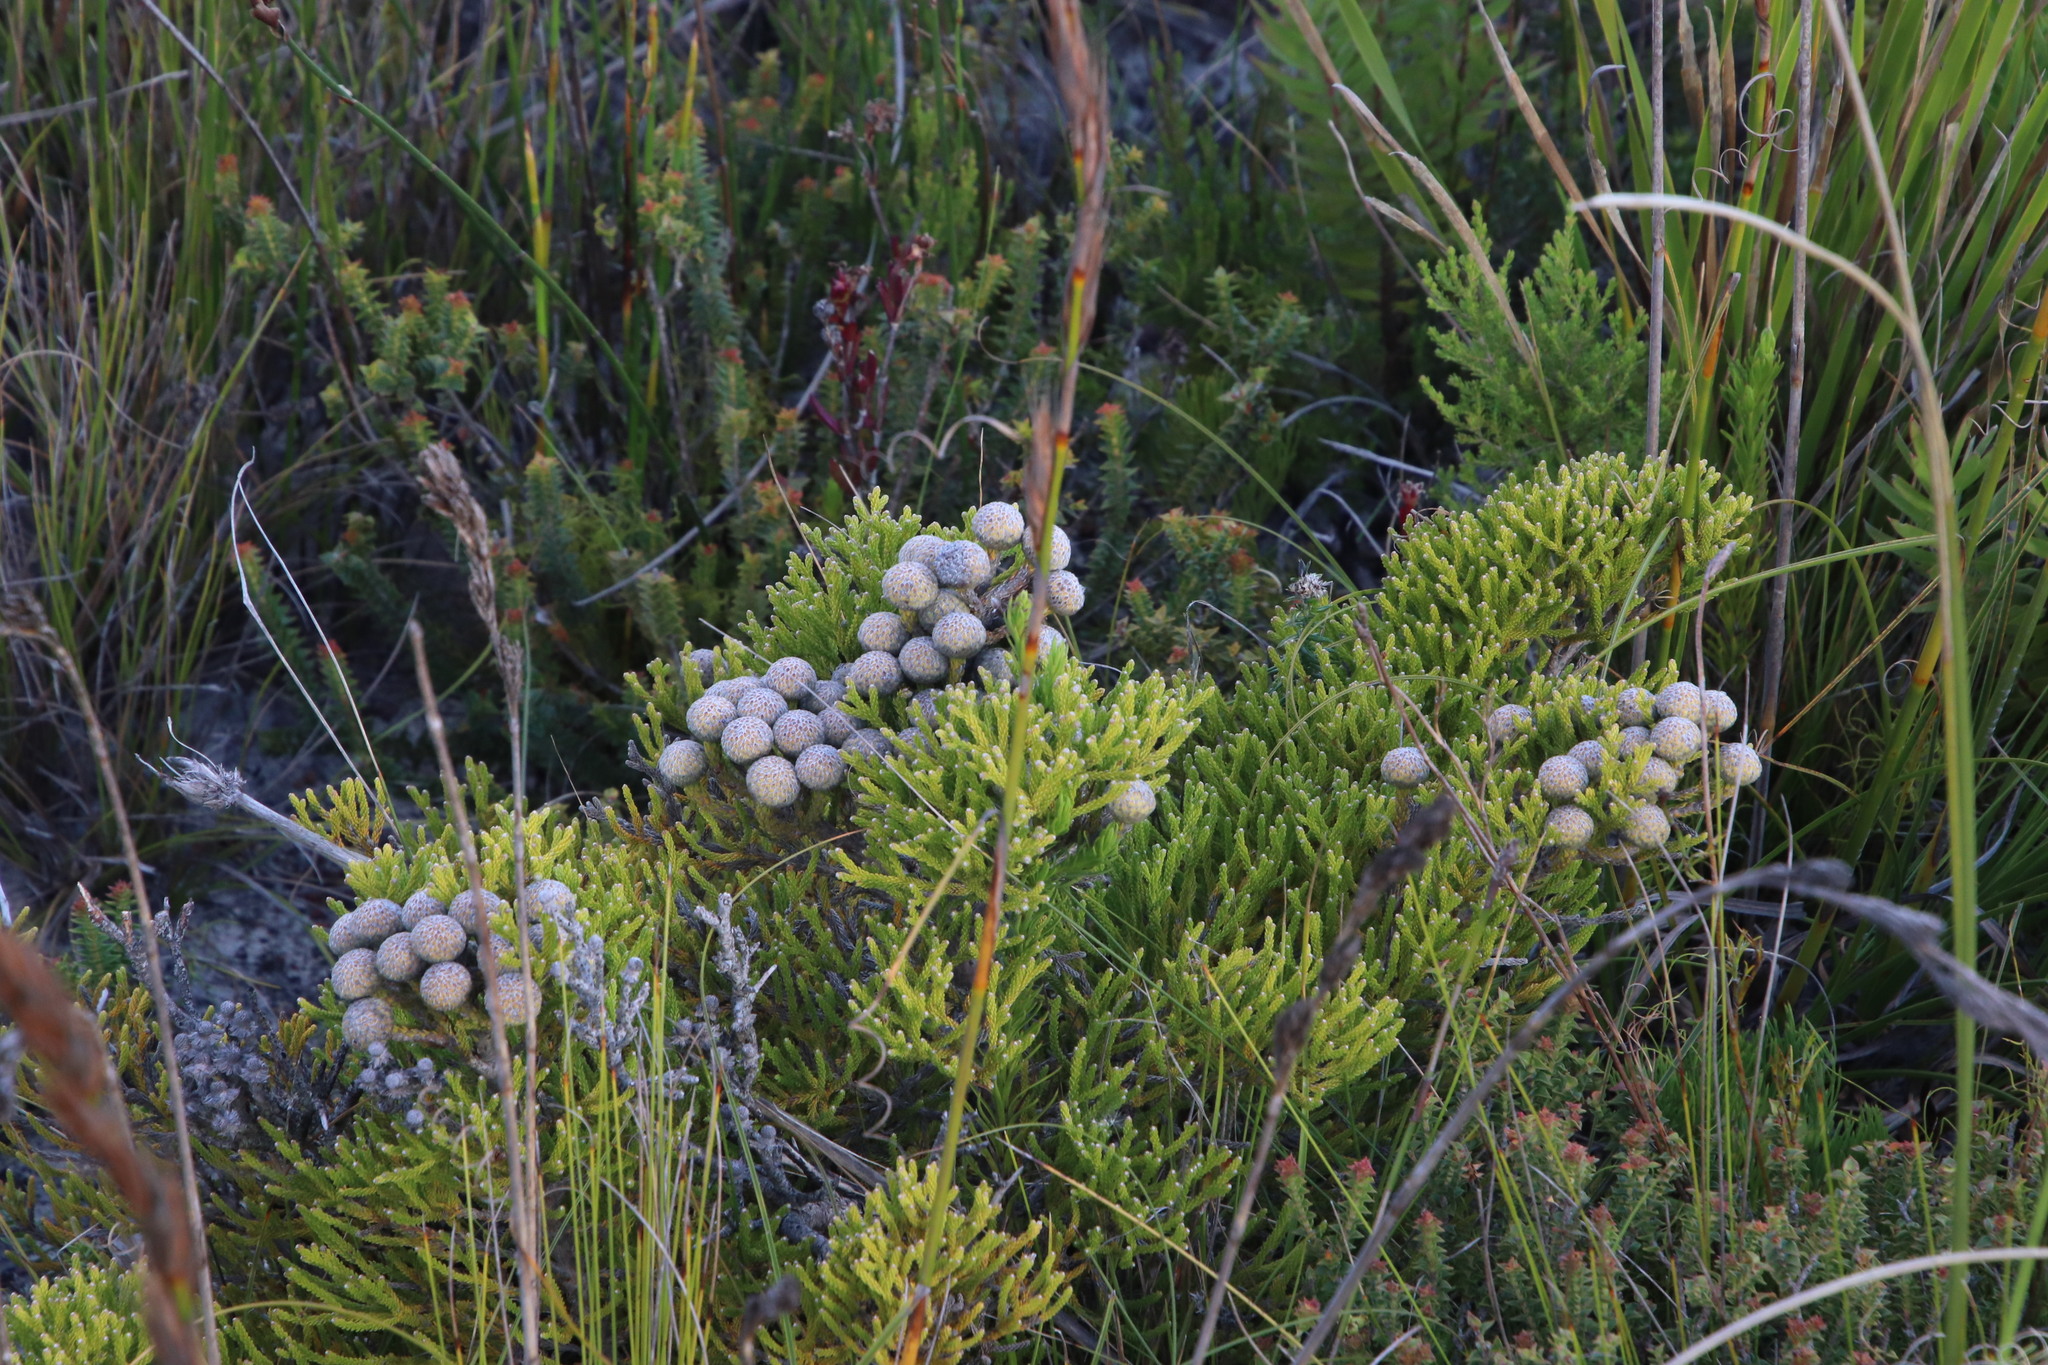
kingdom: Plantae
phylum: Tracheophyta
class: Magnoliopsida
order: Bruniales
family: Bruniaceae
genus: Brunia
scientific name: Brunia noduliflora
